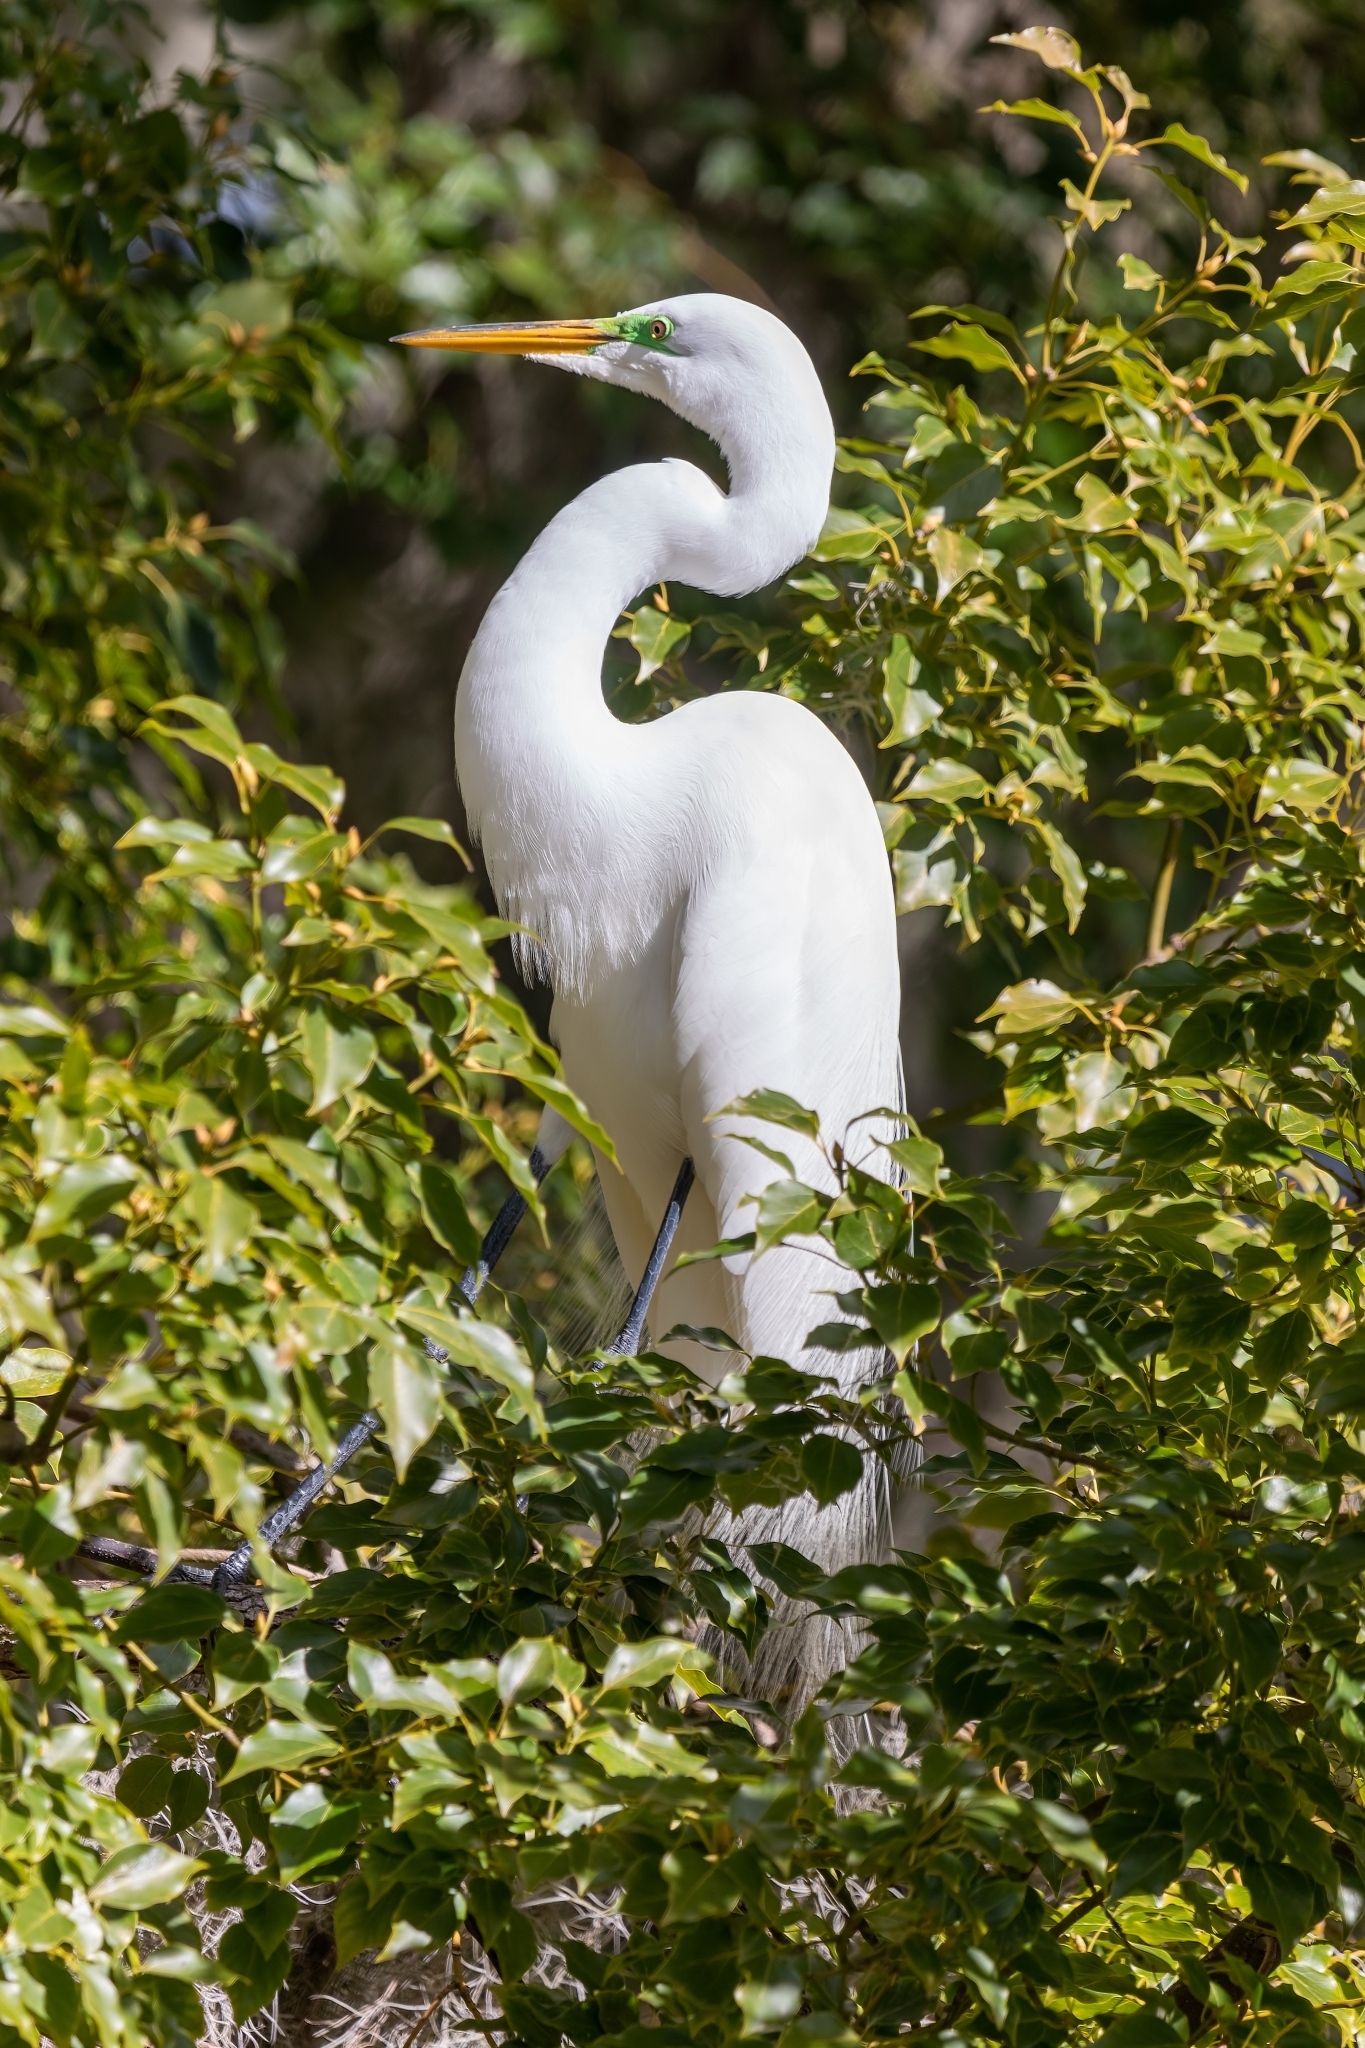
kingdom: Animalia
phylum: Chordata
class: Aves
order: Pelecaniformes
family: Ardeidae
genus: Ardea
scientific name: Ardea alba
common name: Great egret
